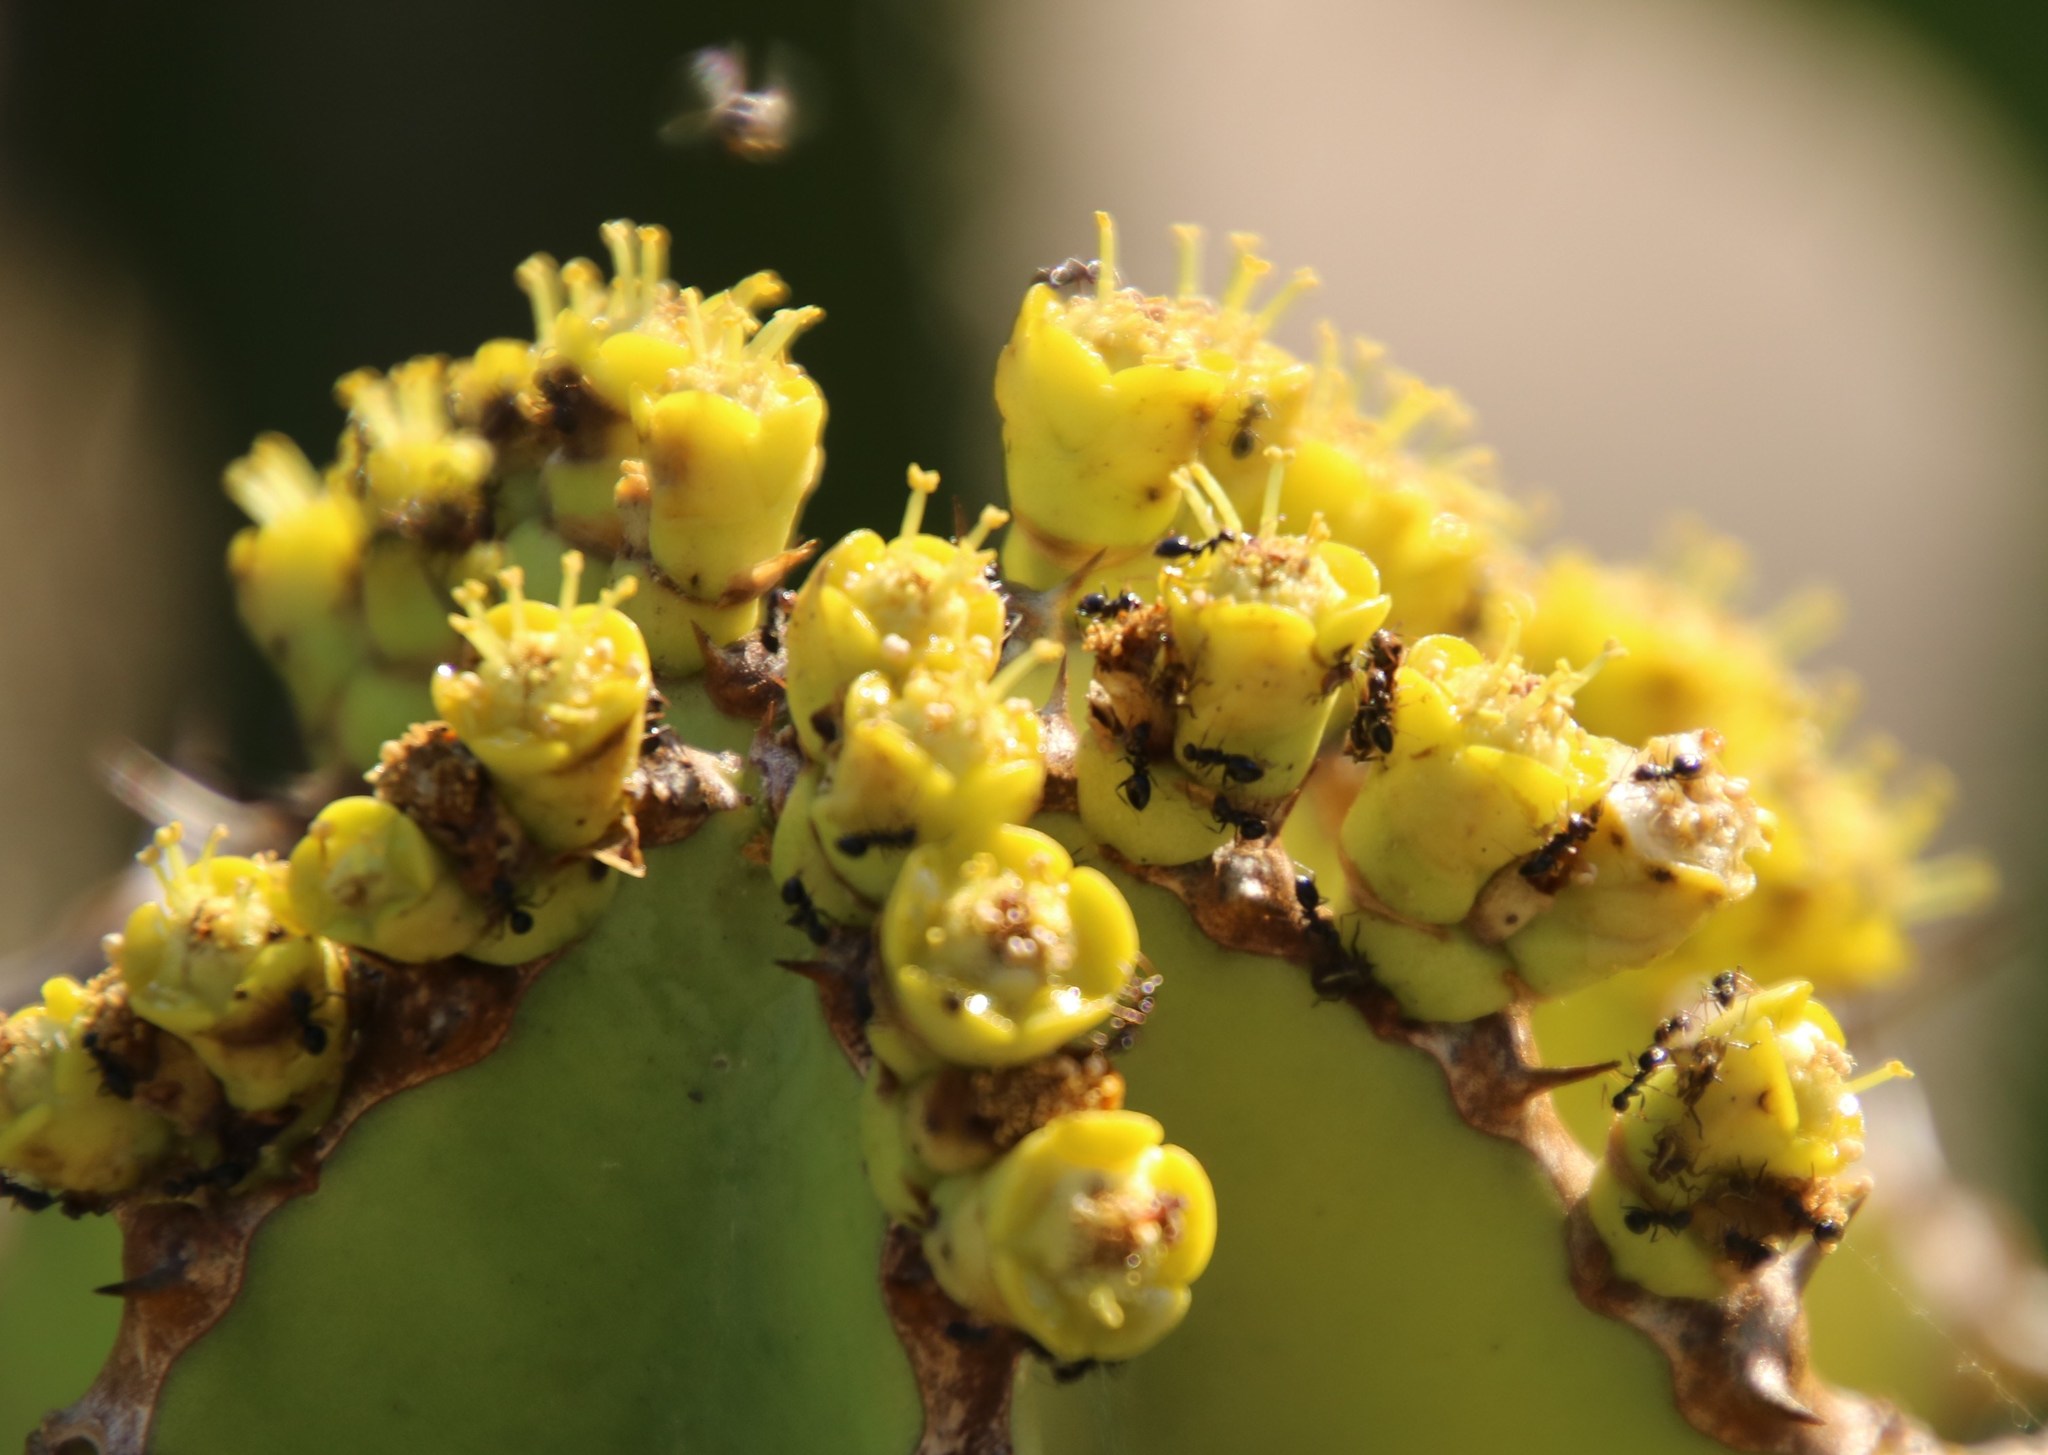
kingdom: Animalia
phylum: Arthropoda
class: Insecta
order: Hymenoptera
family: Formicidae
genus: Tapinoma
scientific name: Tapinoma pallipes
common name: Ant
